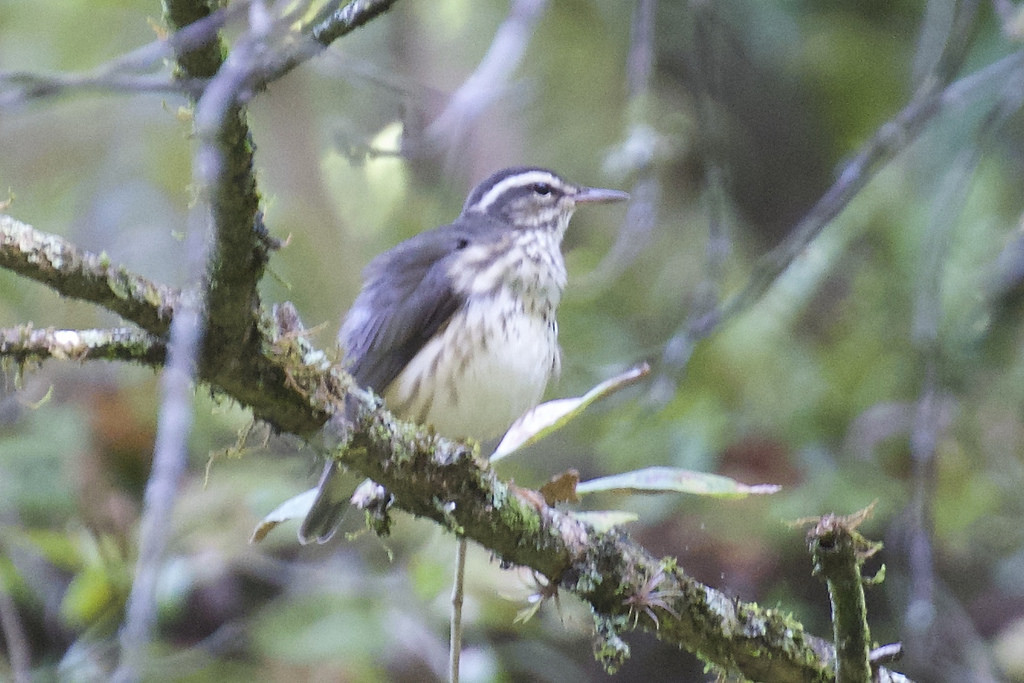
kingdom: Animalia
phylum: Chordata
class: Aves
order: Passeriformes
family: Parulidae
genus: Parkesia
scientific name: Parkesia motacilla
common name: Louisiana waterthrush
